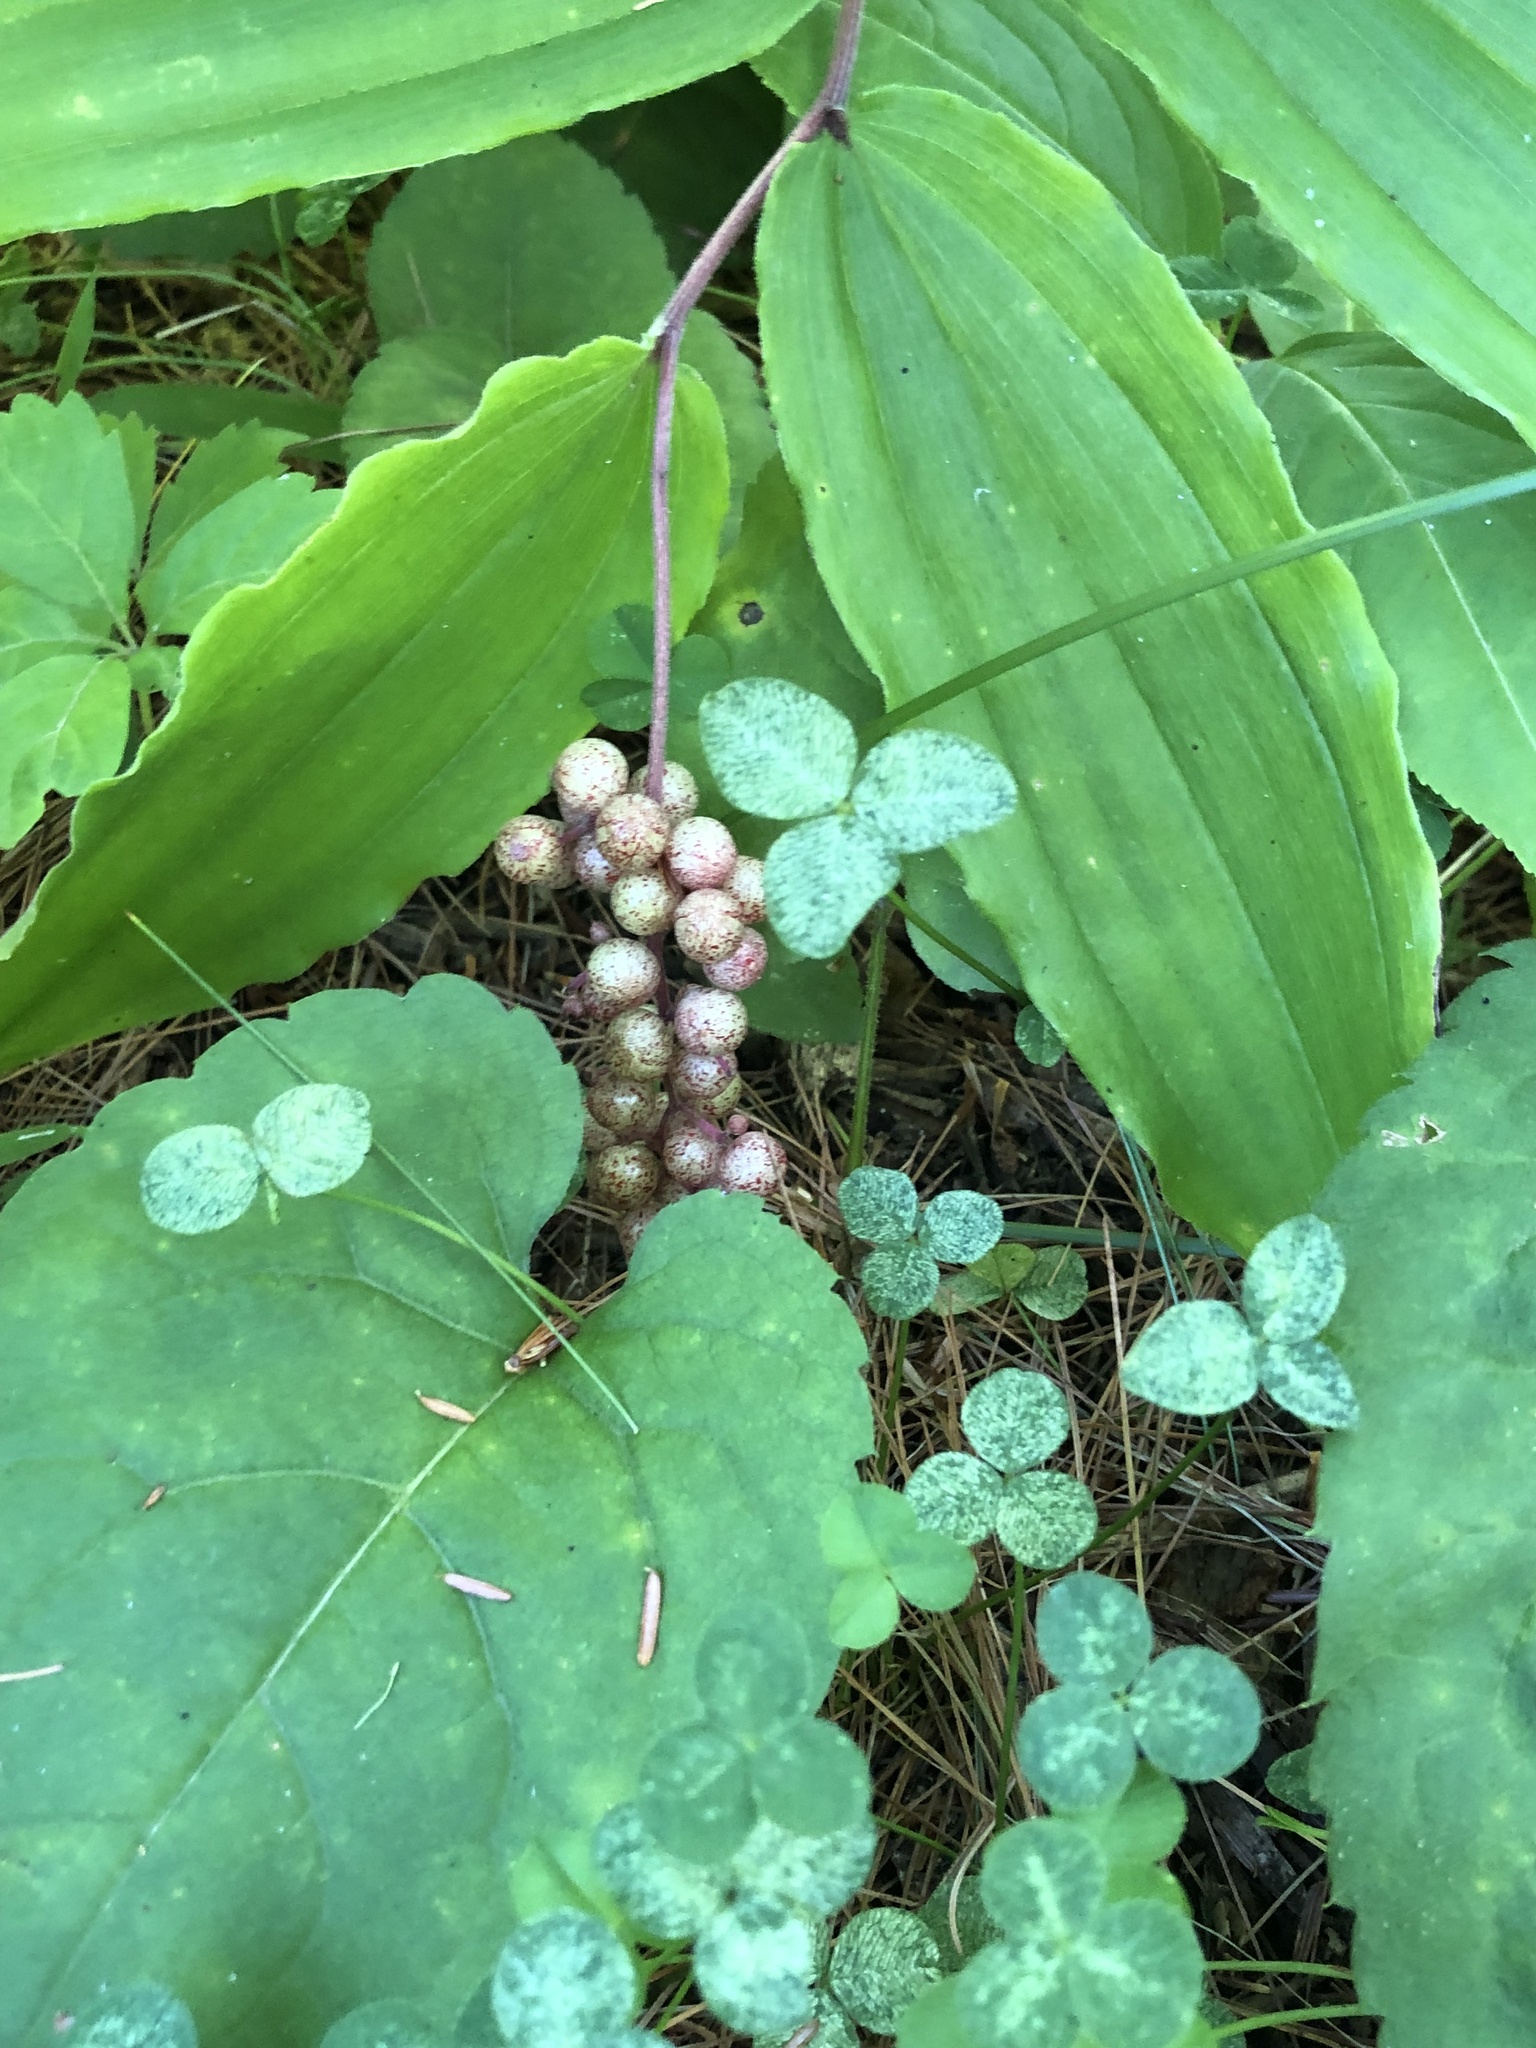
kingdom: Plantae
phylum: Tracheophyta
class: Liliopsida
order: Asparagales
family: Asparagaceae
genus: Maianthemum
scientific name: Maianthemum racemosum
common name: False spikenard
